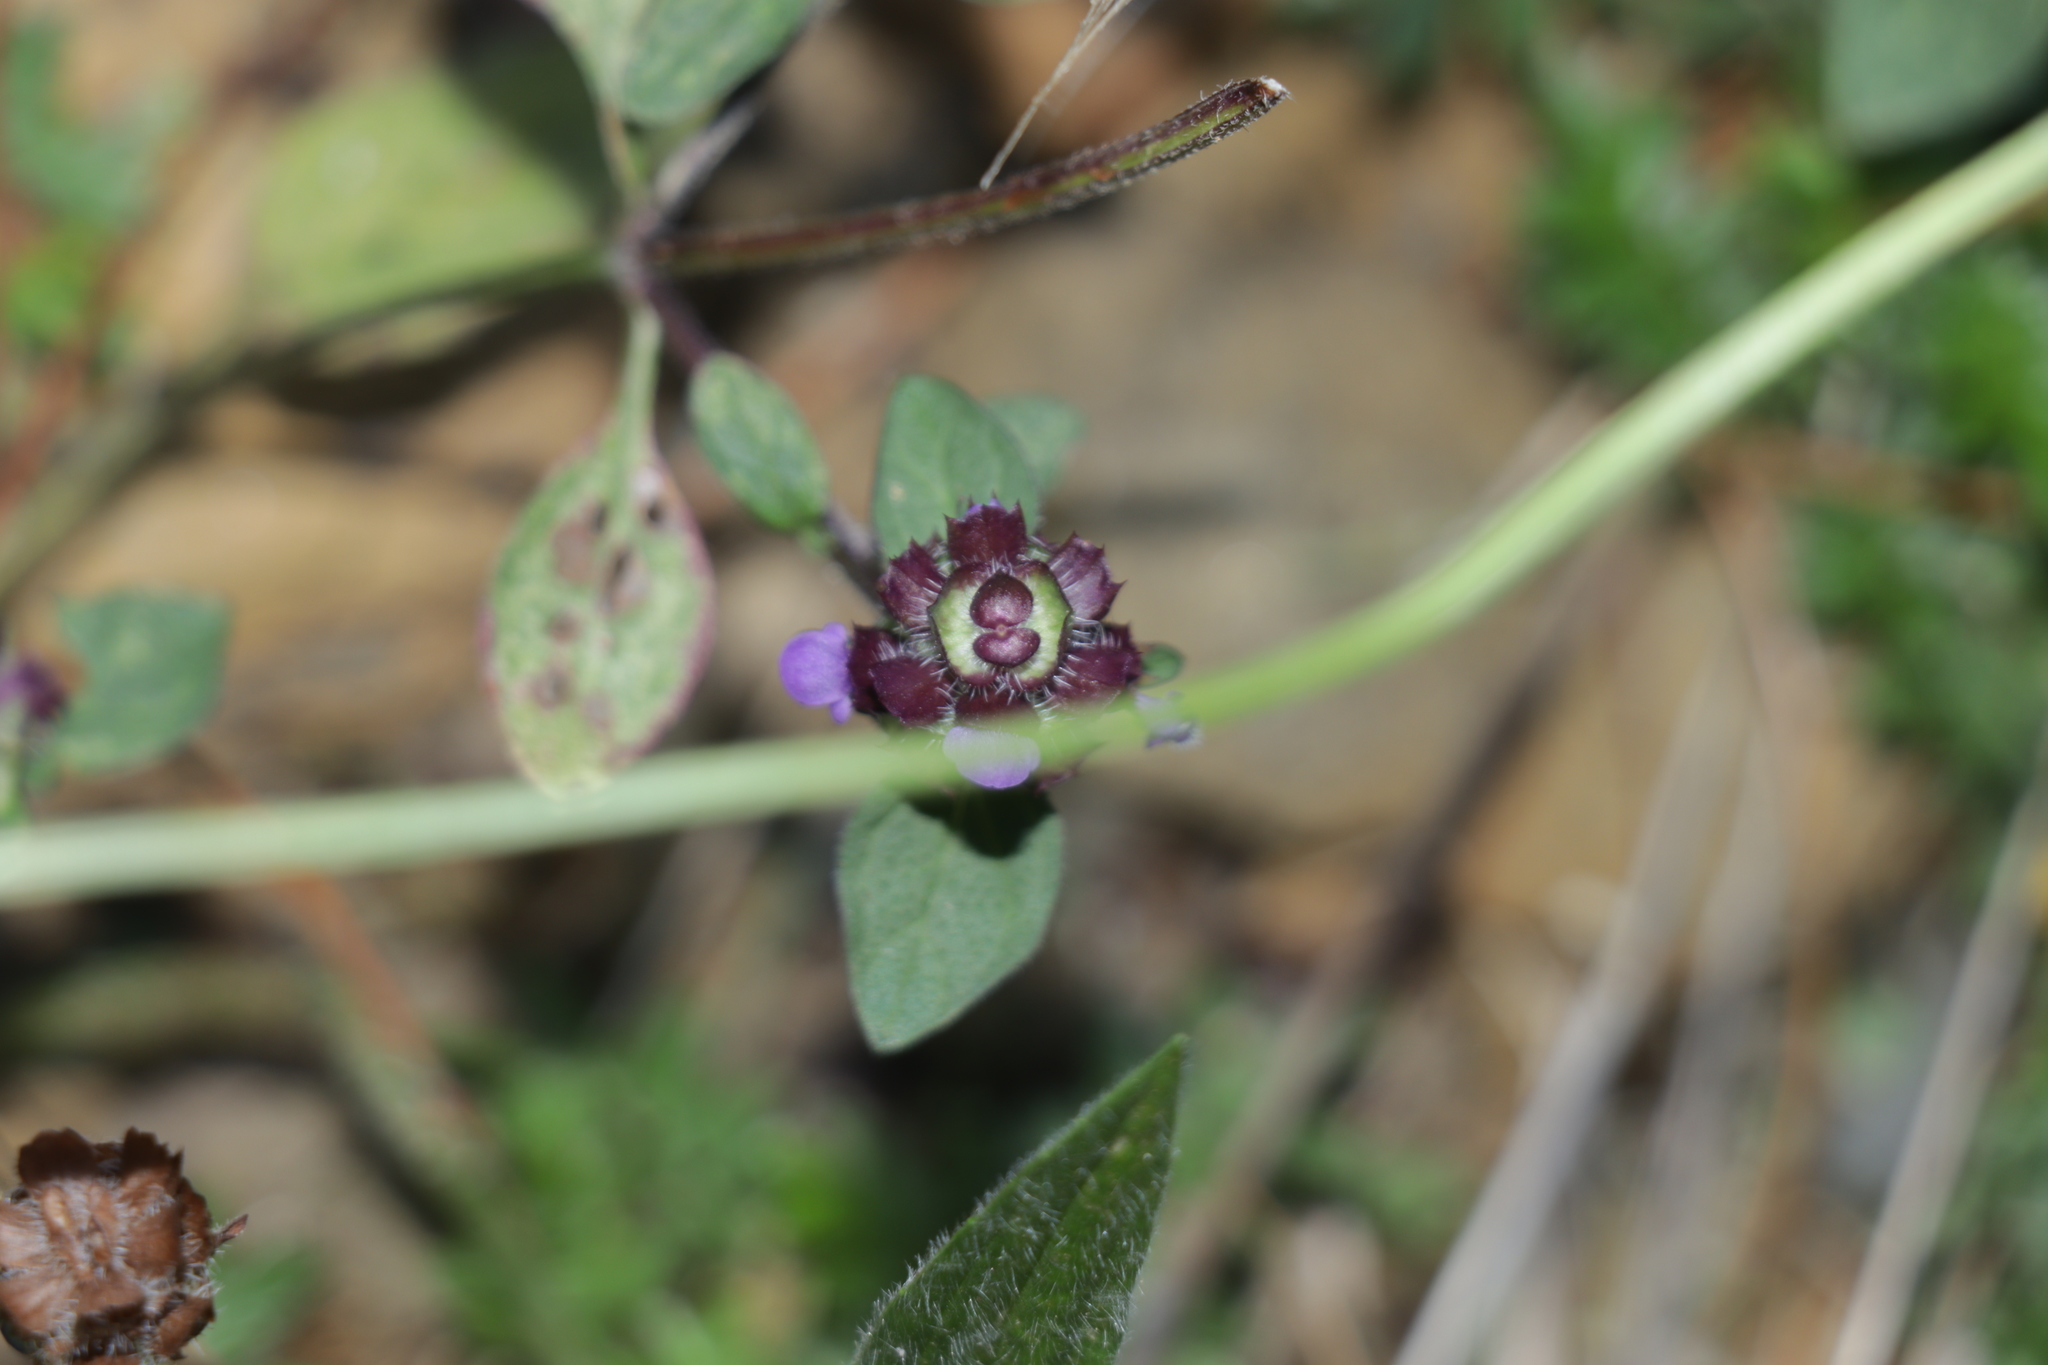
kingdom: Plantae
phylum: Tracheophyta
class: Magnoliopsida
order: Lamiales
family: Lamiaceae
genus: Prunella
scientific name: Prunella vulgaris
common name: Heal-all
